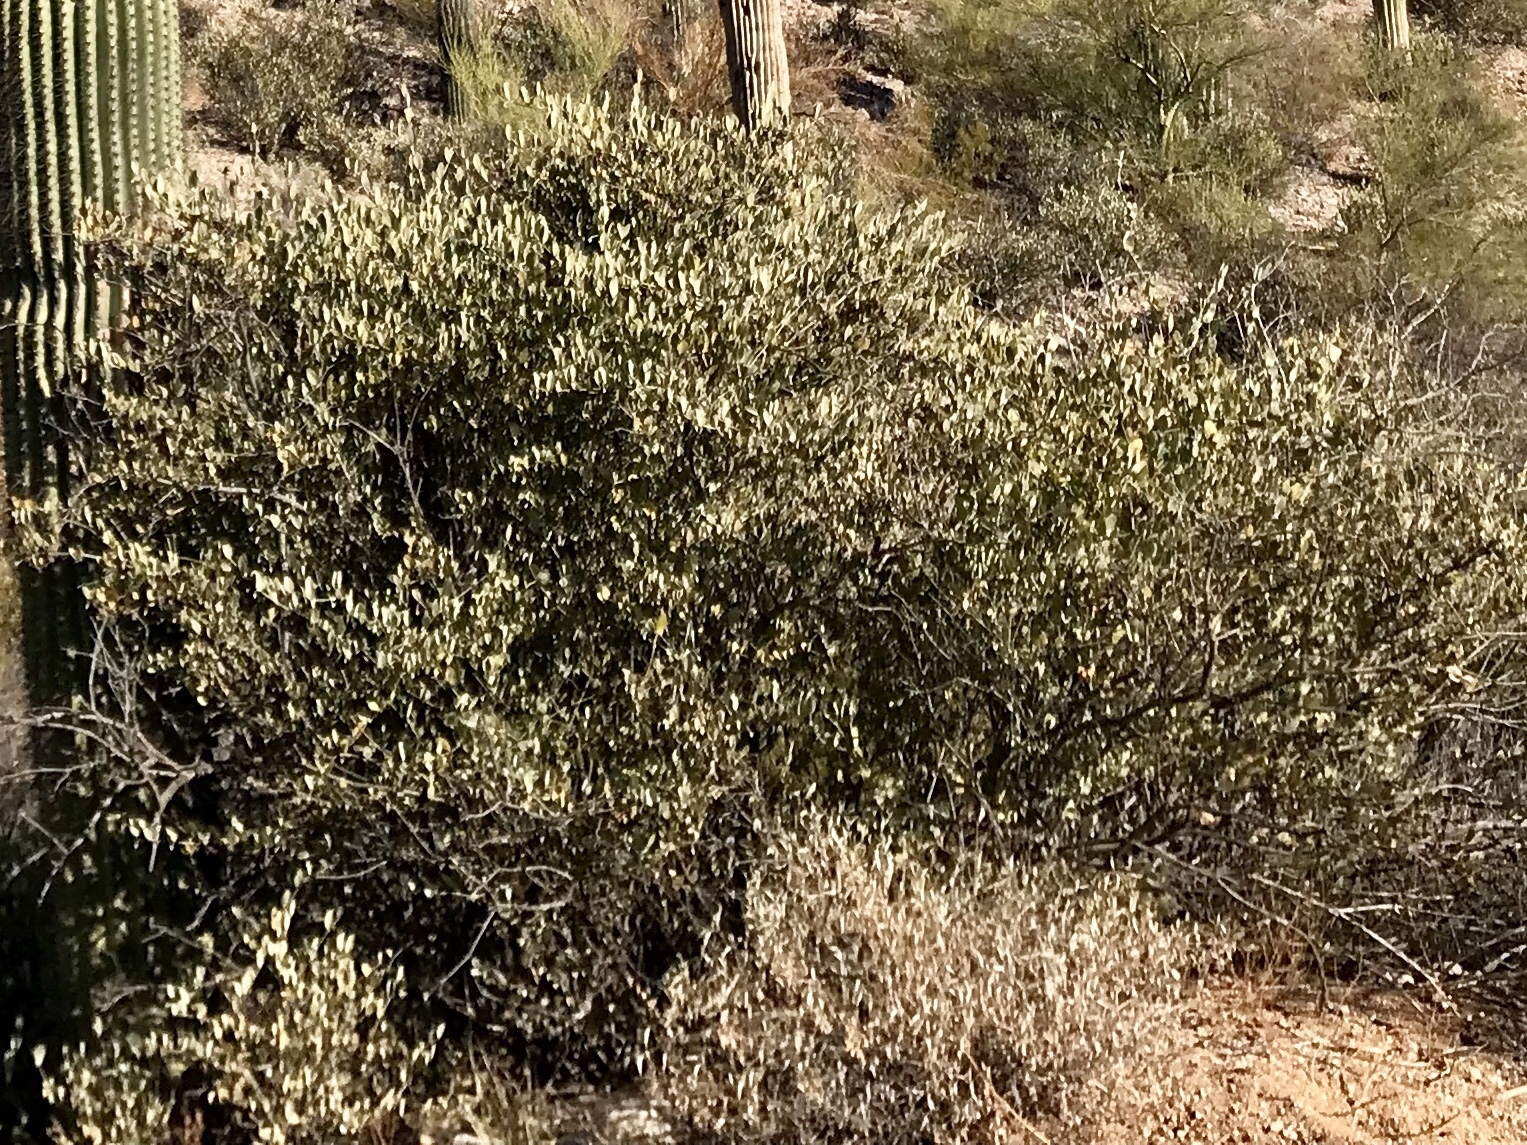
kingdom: Plantae
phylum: Tracheophyta
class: Magnoliopsida
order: Caryophyllales
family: Simmondsiaceae
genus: Simmondsia
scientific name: Simmondsia chinensis
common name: Jojoba
